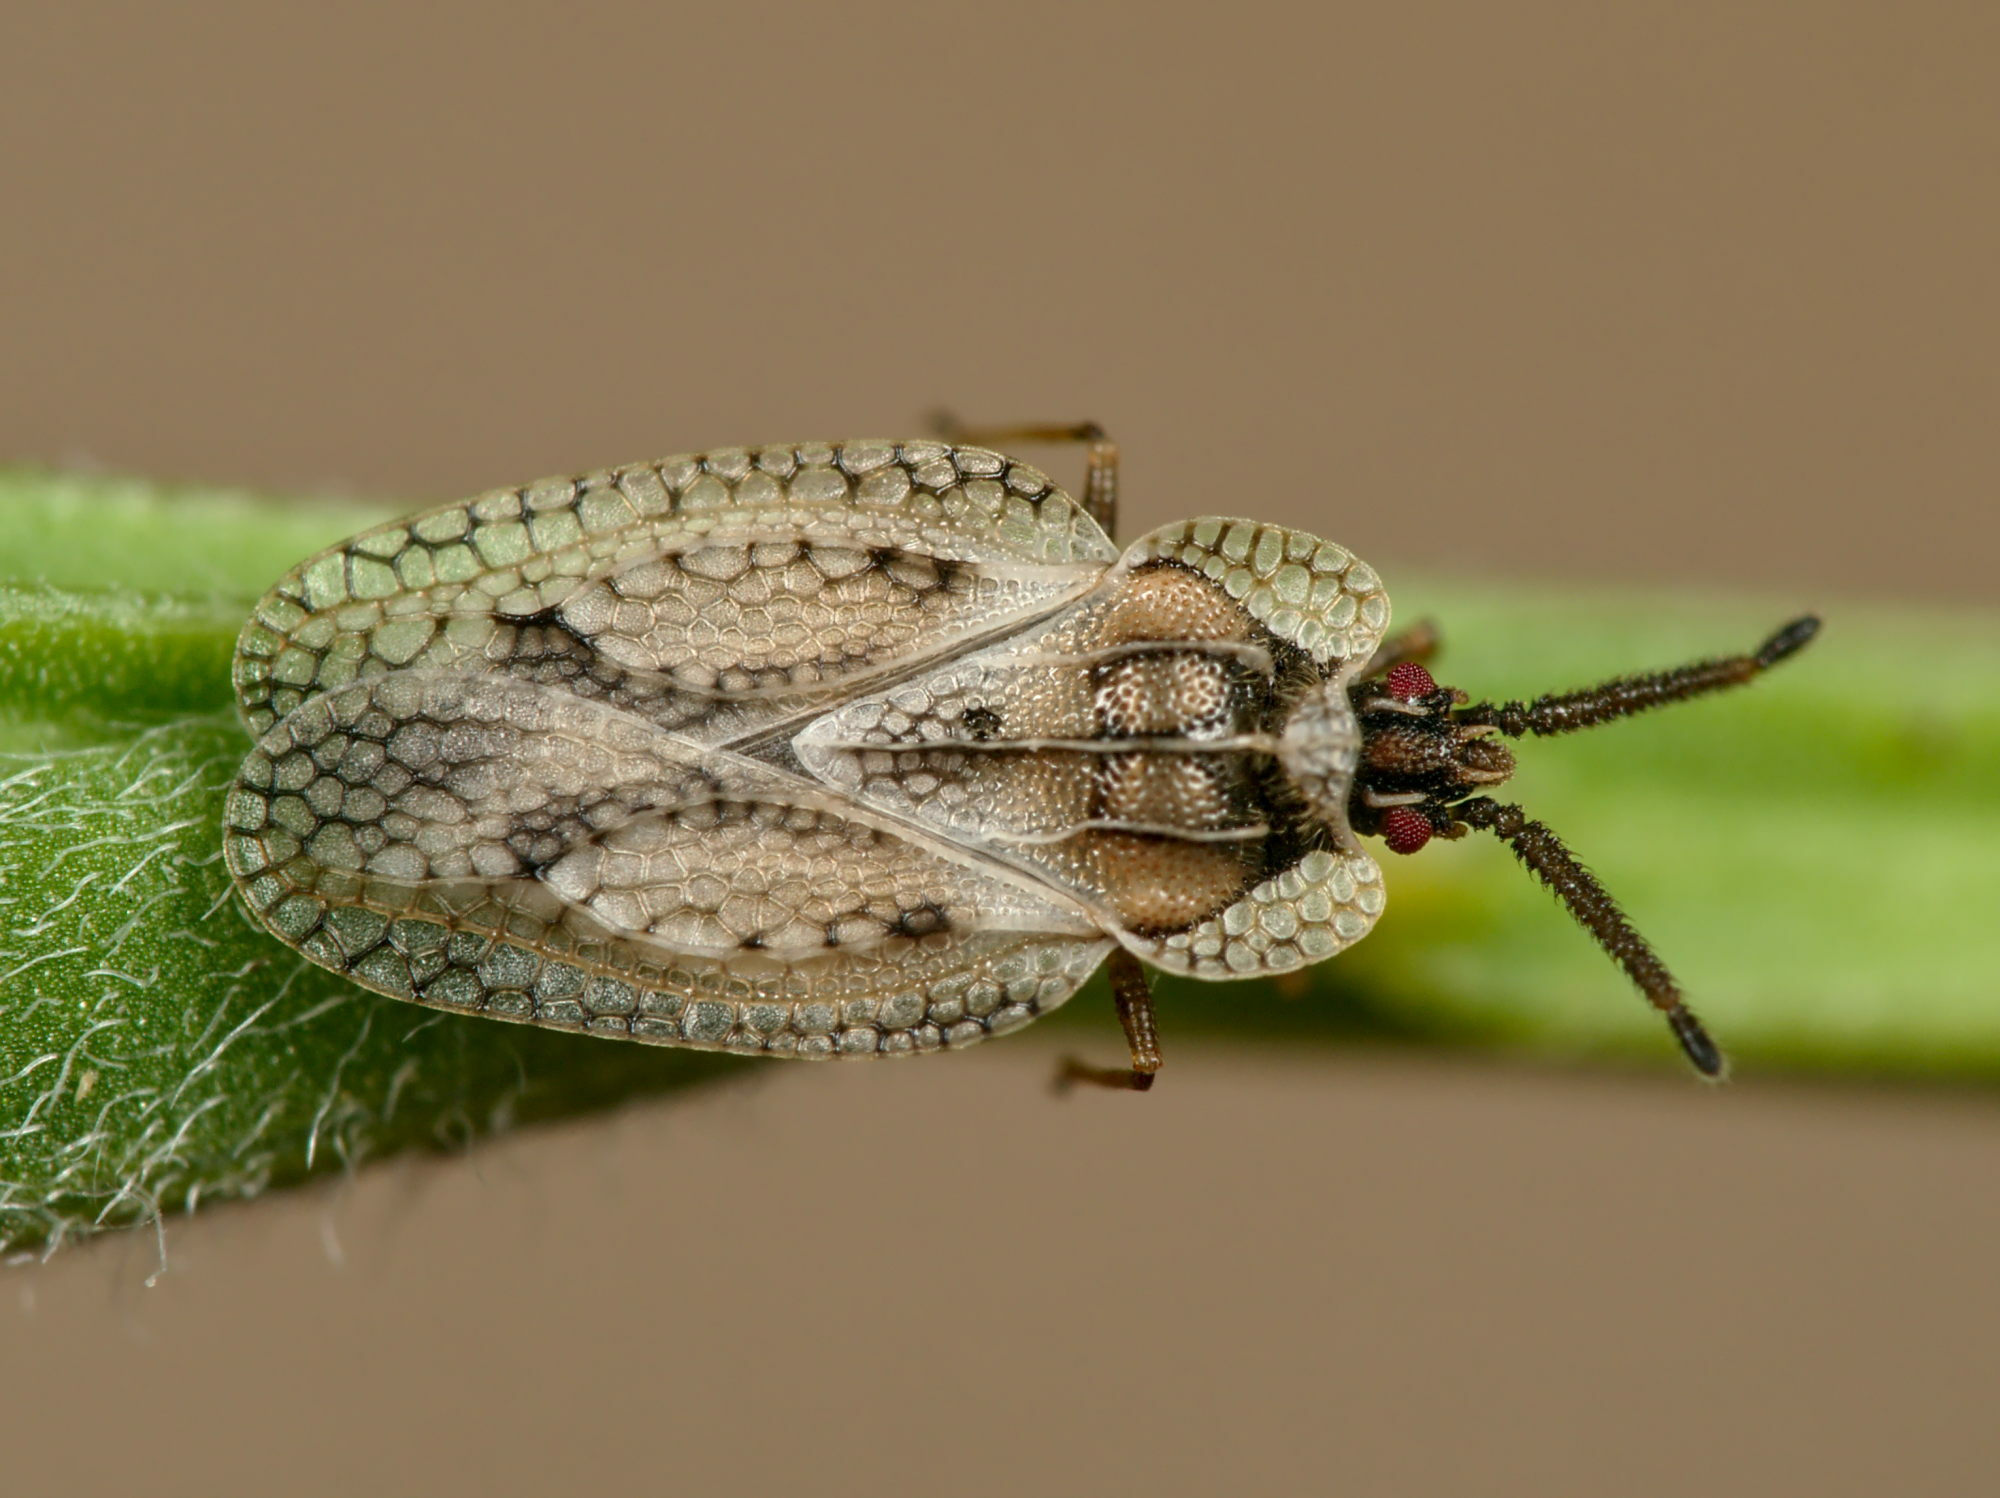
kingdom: Animalia
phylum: Arthropoda
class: Insecta
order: Hemiptera
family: Tingidae
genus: Dictyonota
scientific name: Dictyonota fuliginosa
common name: Lace bug
